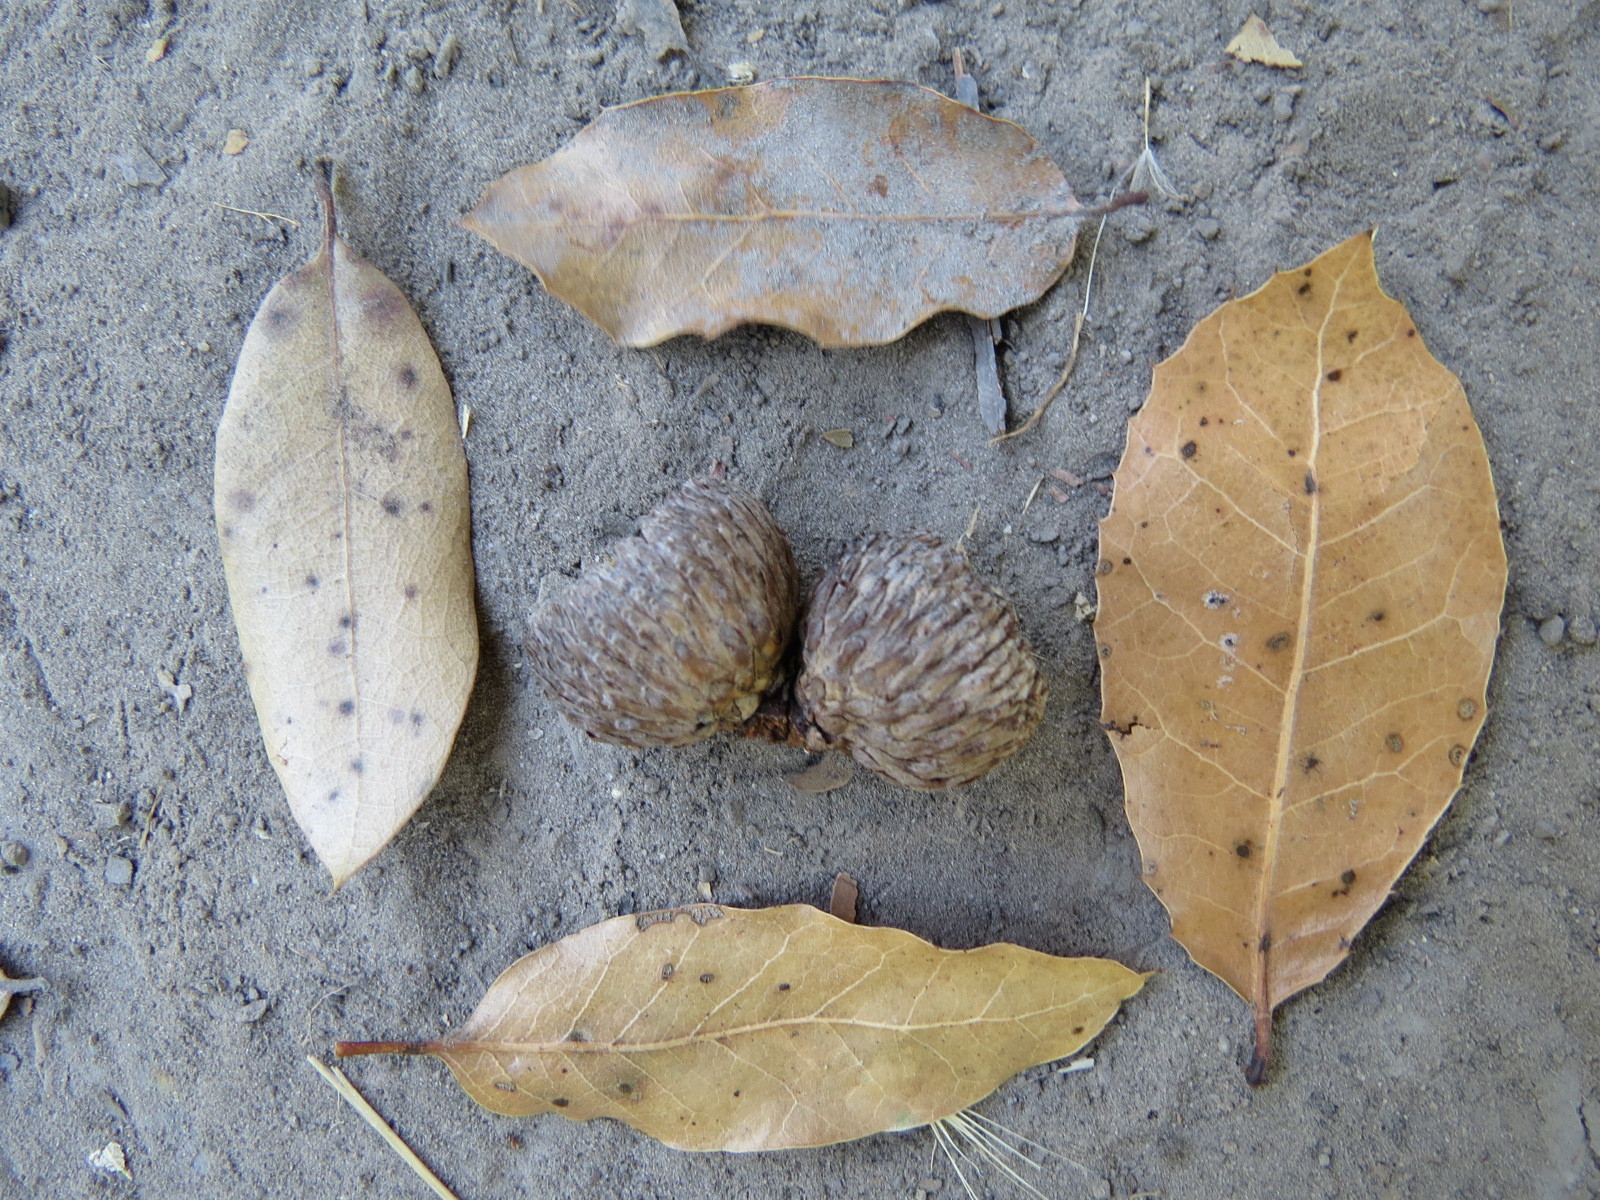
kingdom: Plantae
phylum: Tracheophyta
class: Magnoliopsida
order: Fagales
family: Fagaceae
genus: Quercus
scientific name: Quercus parvula
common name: Santa cruz island oak
